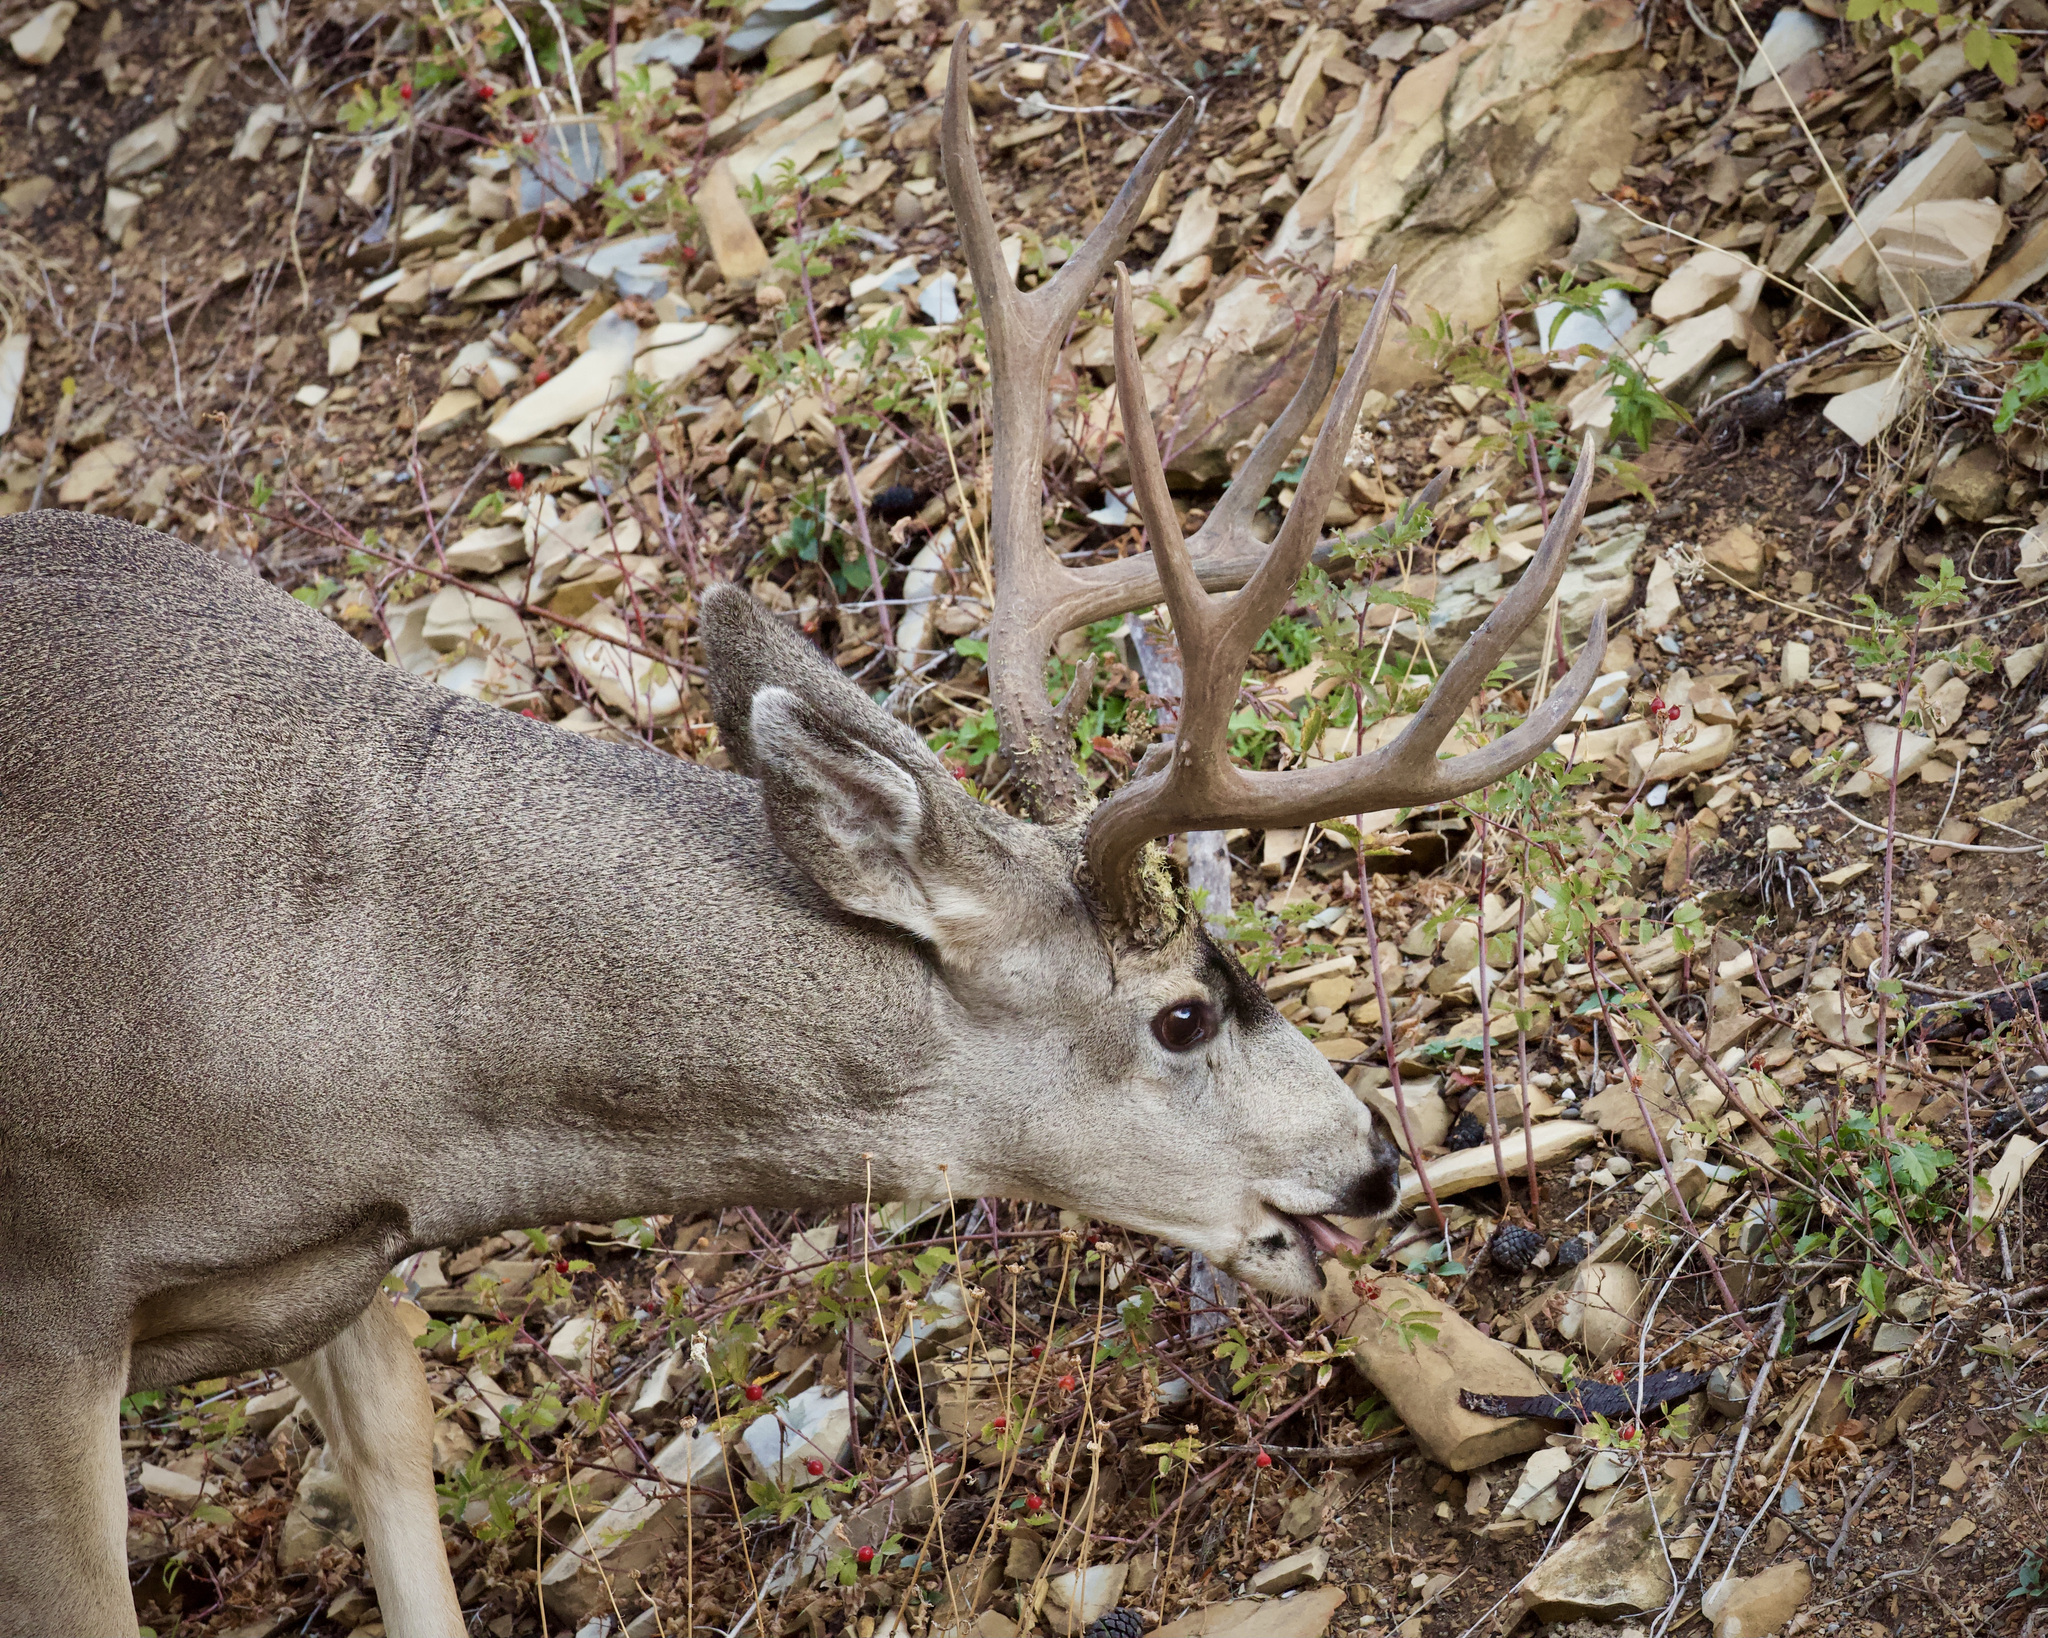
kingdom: Animalia
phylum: Chordata
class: Mammalia
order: Artiodactyla
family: Cervidae
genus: Odocoileus
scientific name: Odocoileus hemionus
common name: Mule deer
